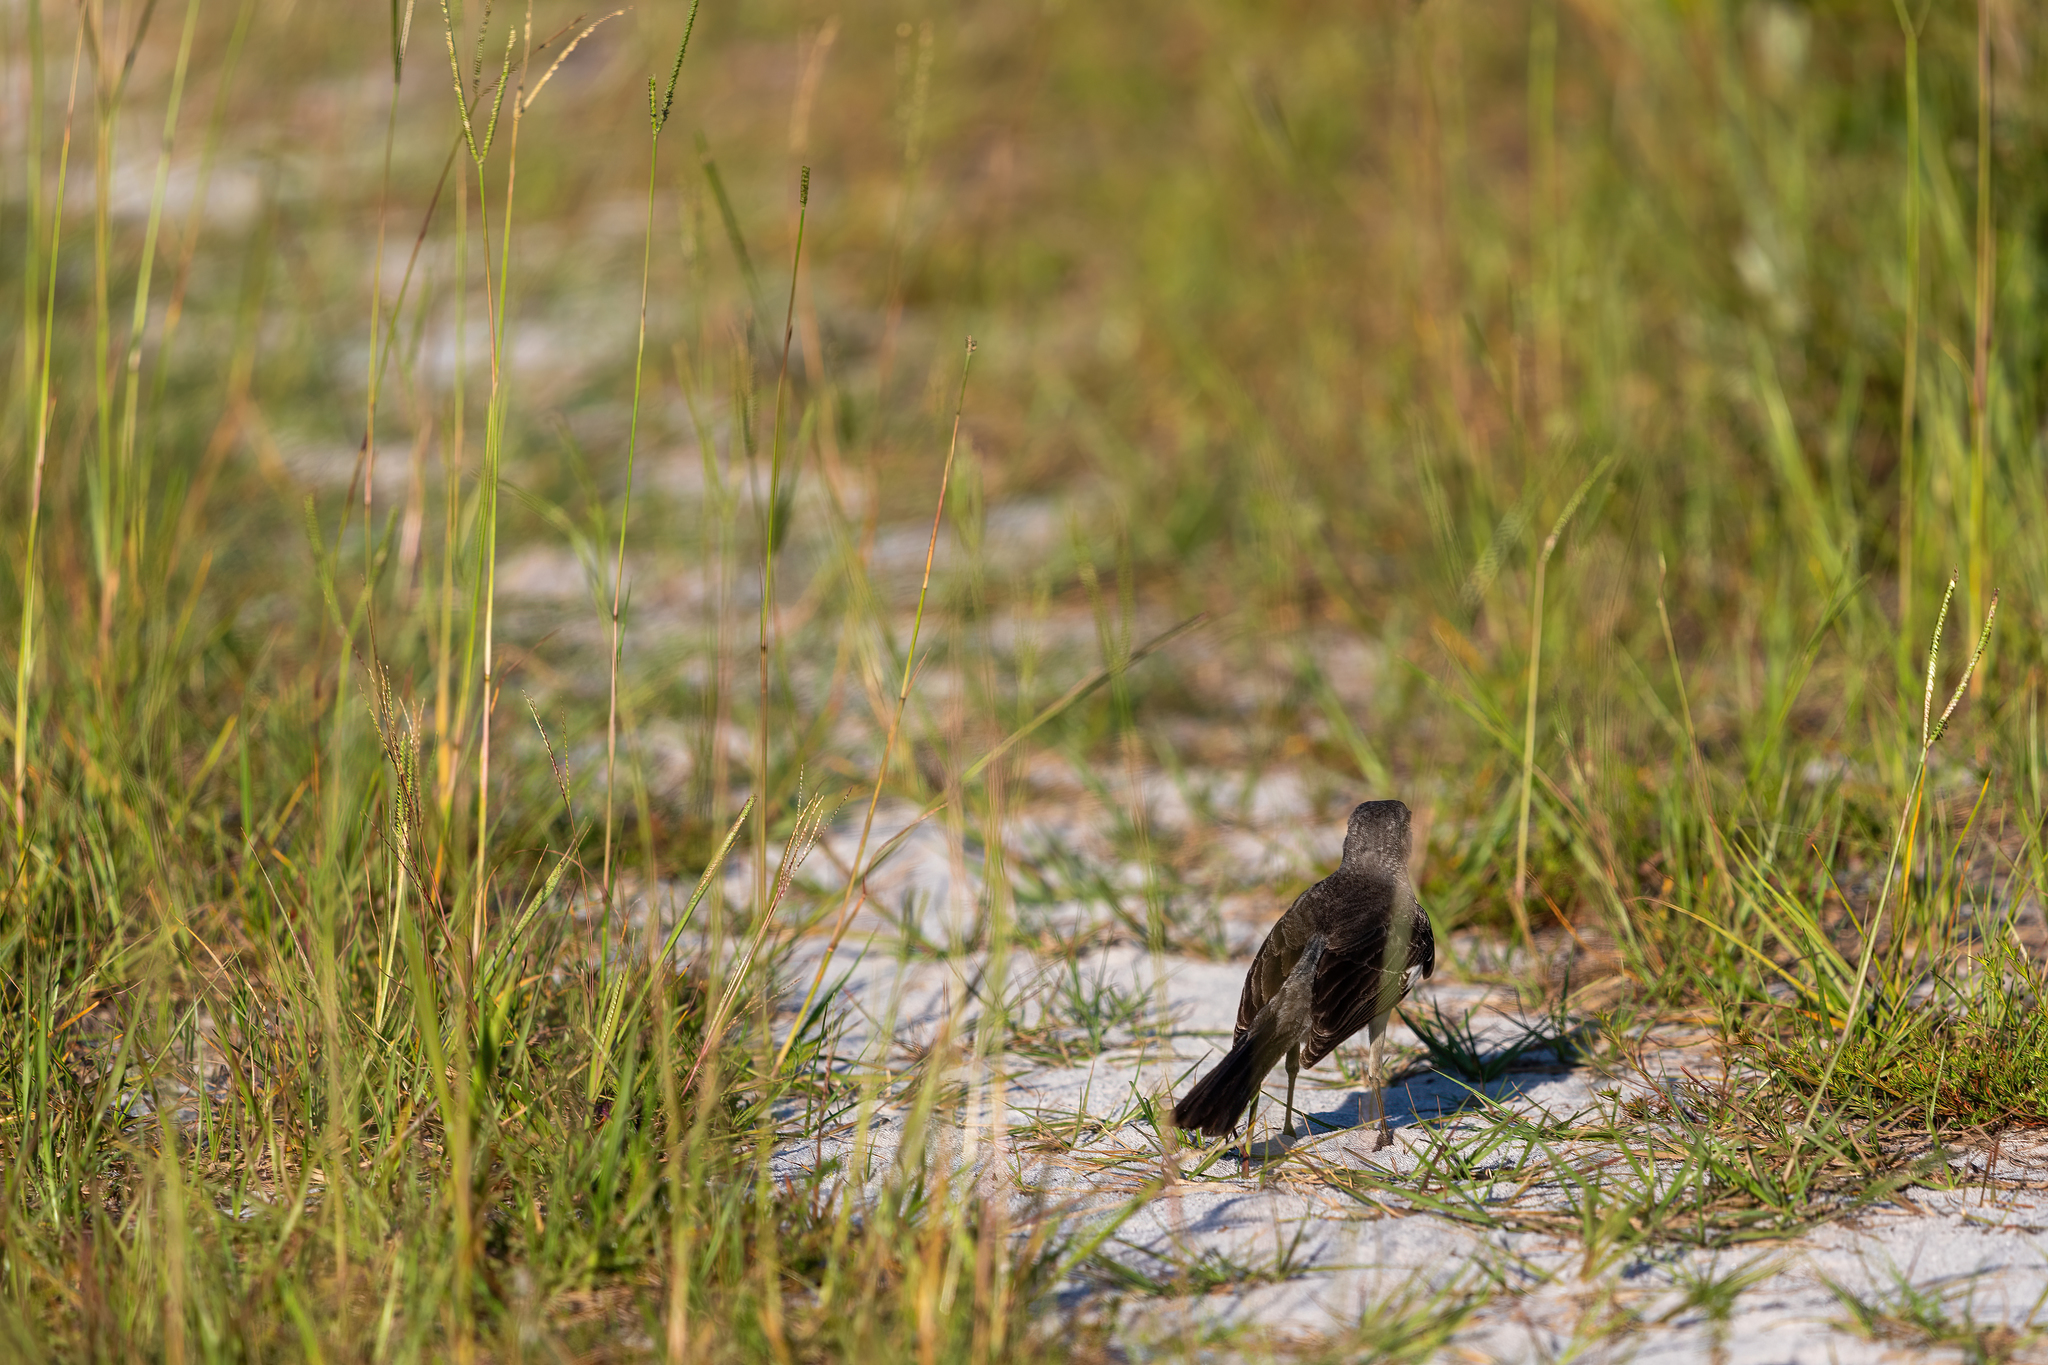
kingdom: Animalia
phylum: Chordata
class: Aves
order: Passeriformes
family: Mimidae
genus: Mimus
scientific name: Mimus polyglottos
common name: Northern mockingbird
